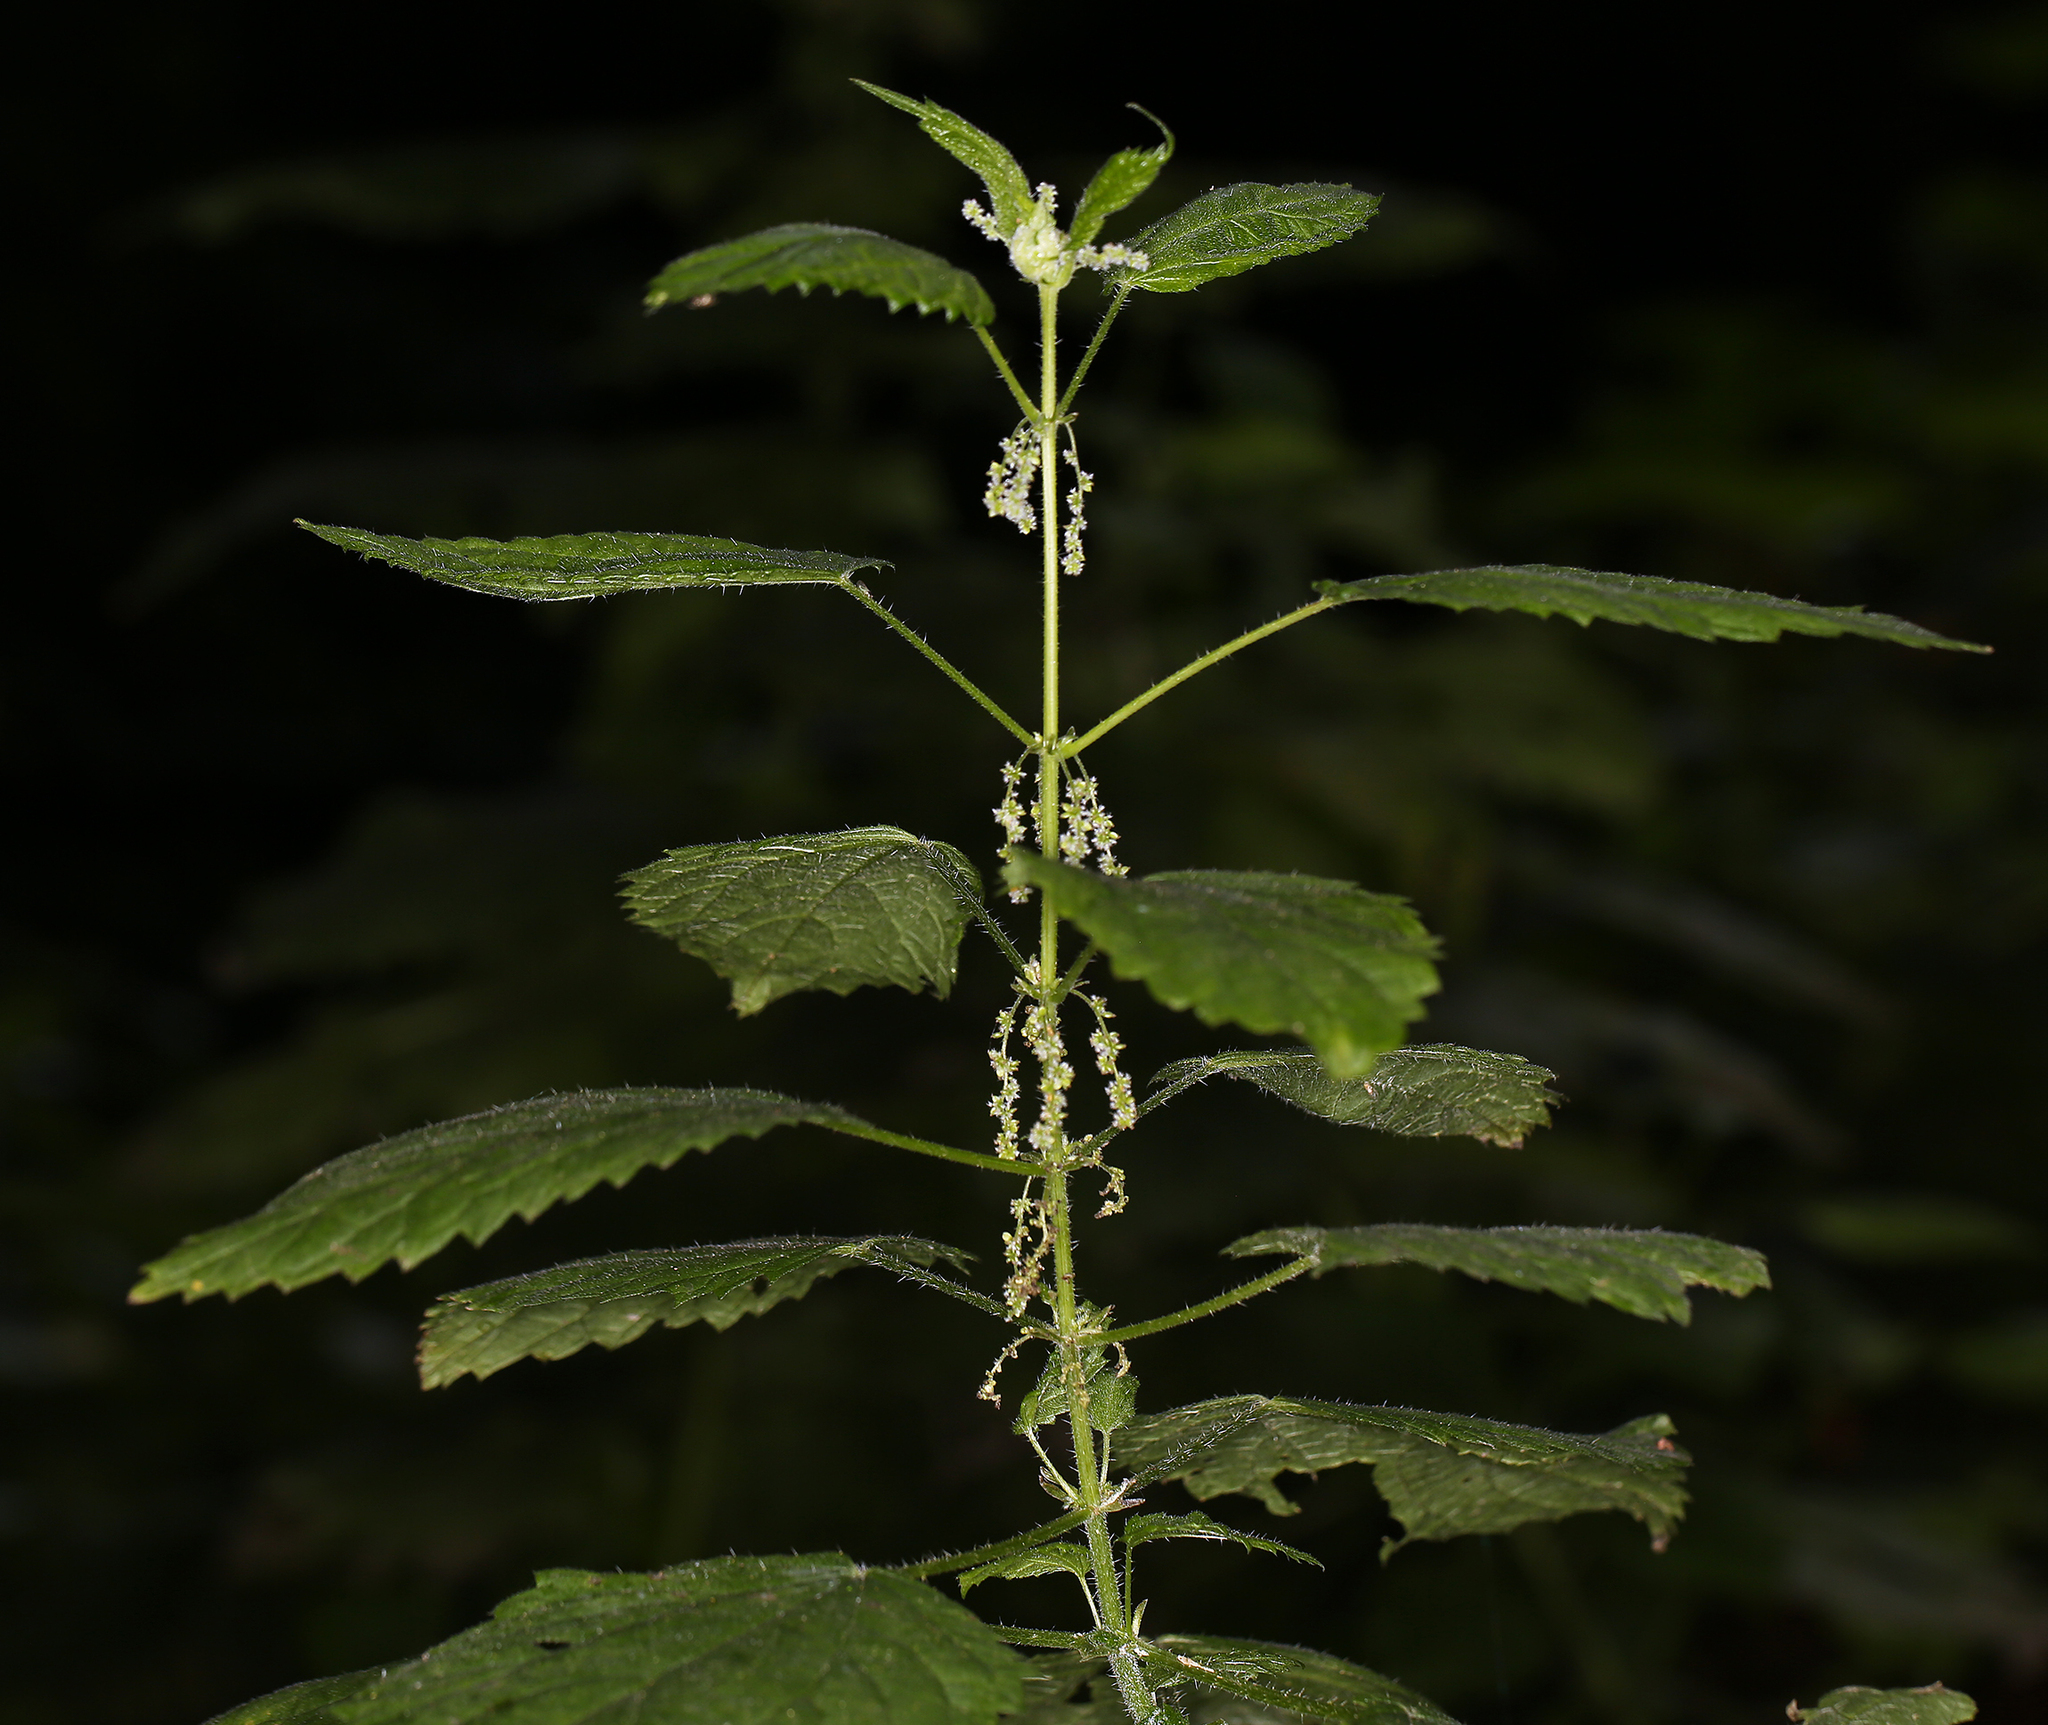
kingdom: Plantae
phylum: Tracheophyta
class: Magnoliopsida
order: Rosales
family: Urticaceae
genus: Urtica
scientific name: Urtica dioica
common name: Common nettle
